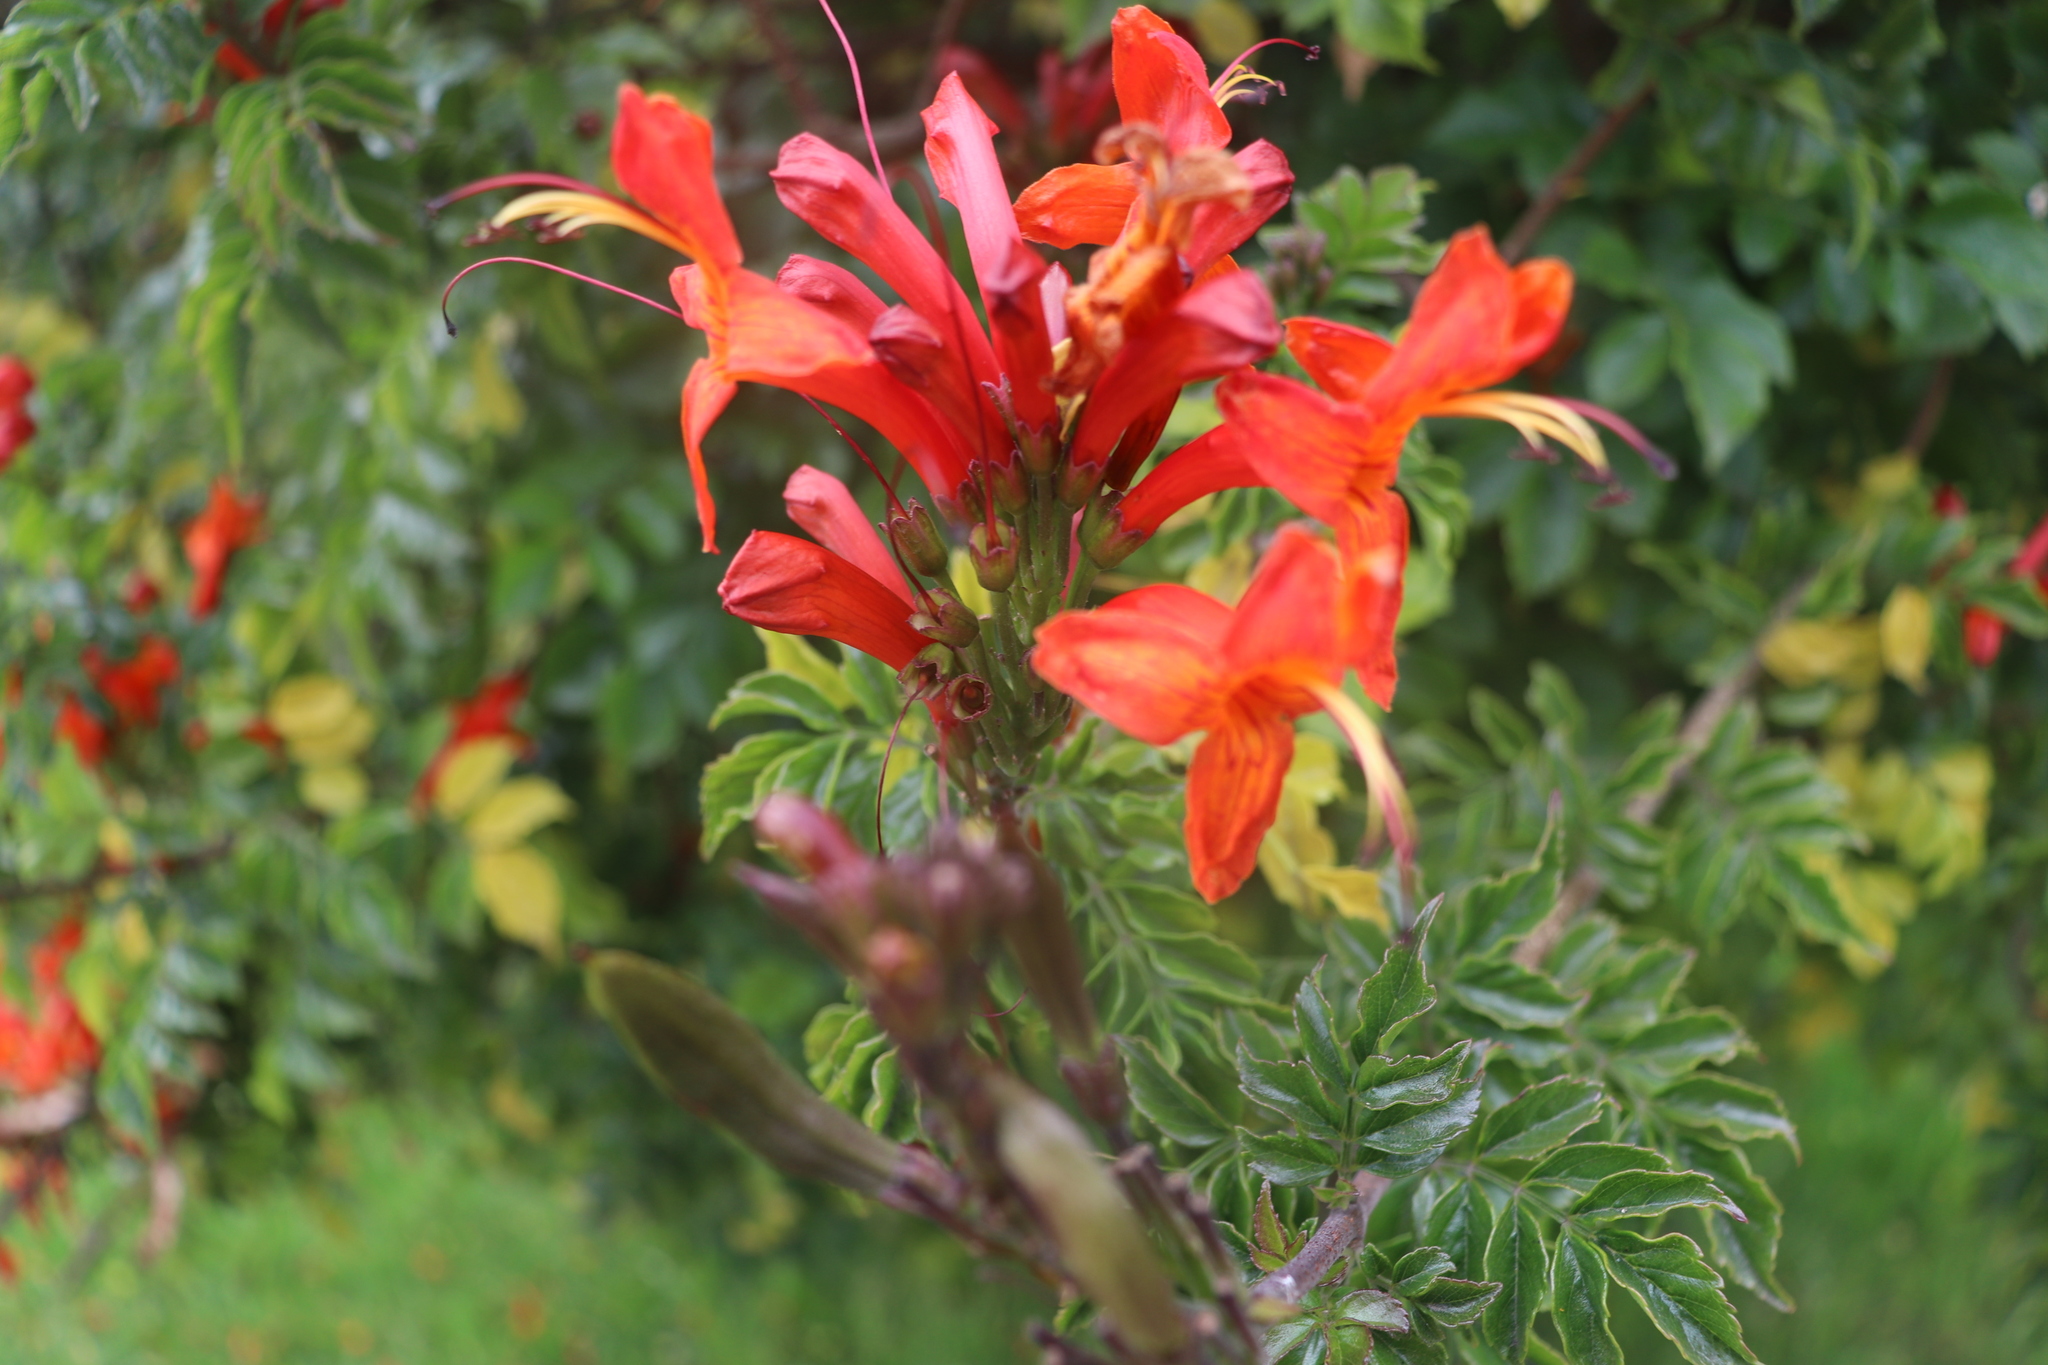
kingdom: Plantae
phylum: Tracheophyta
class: Magnoliopsida
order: Lamiales
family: Bignoniaceae
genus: Tecomaria
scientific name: Tecomaria capensis
